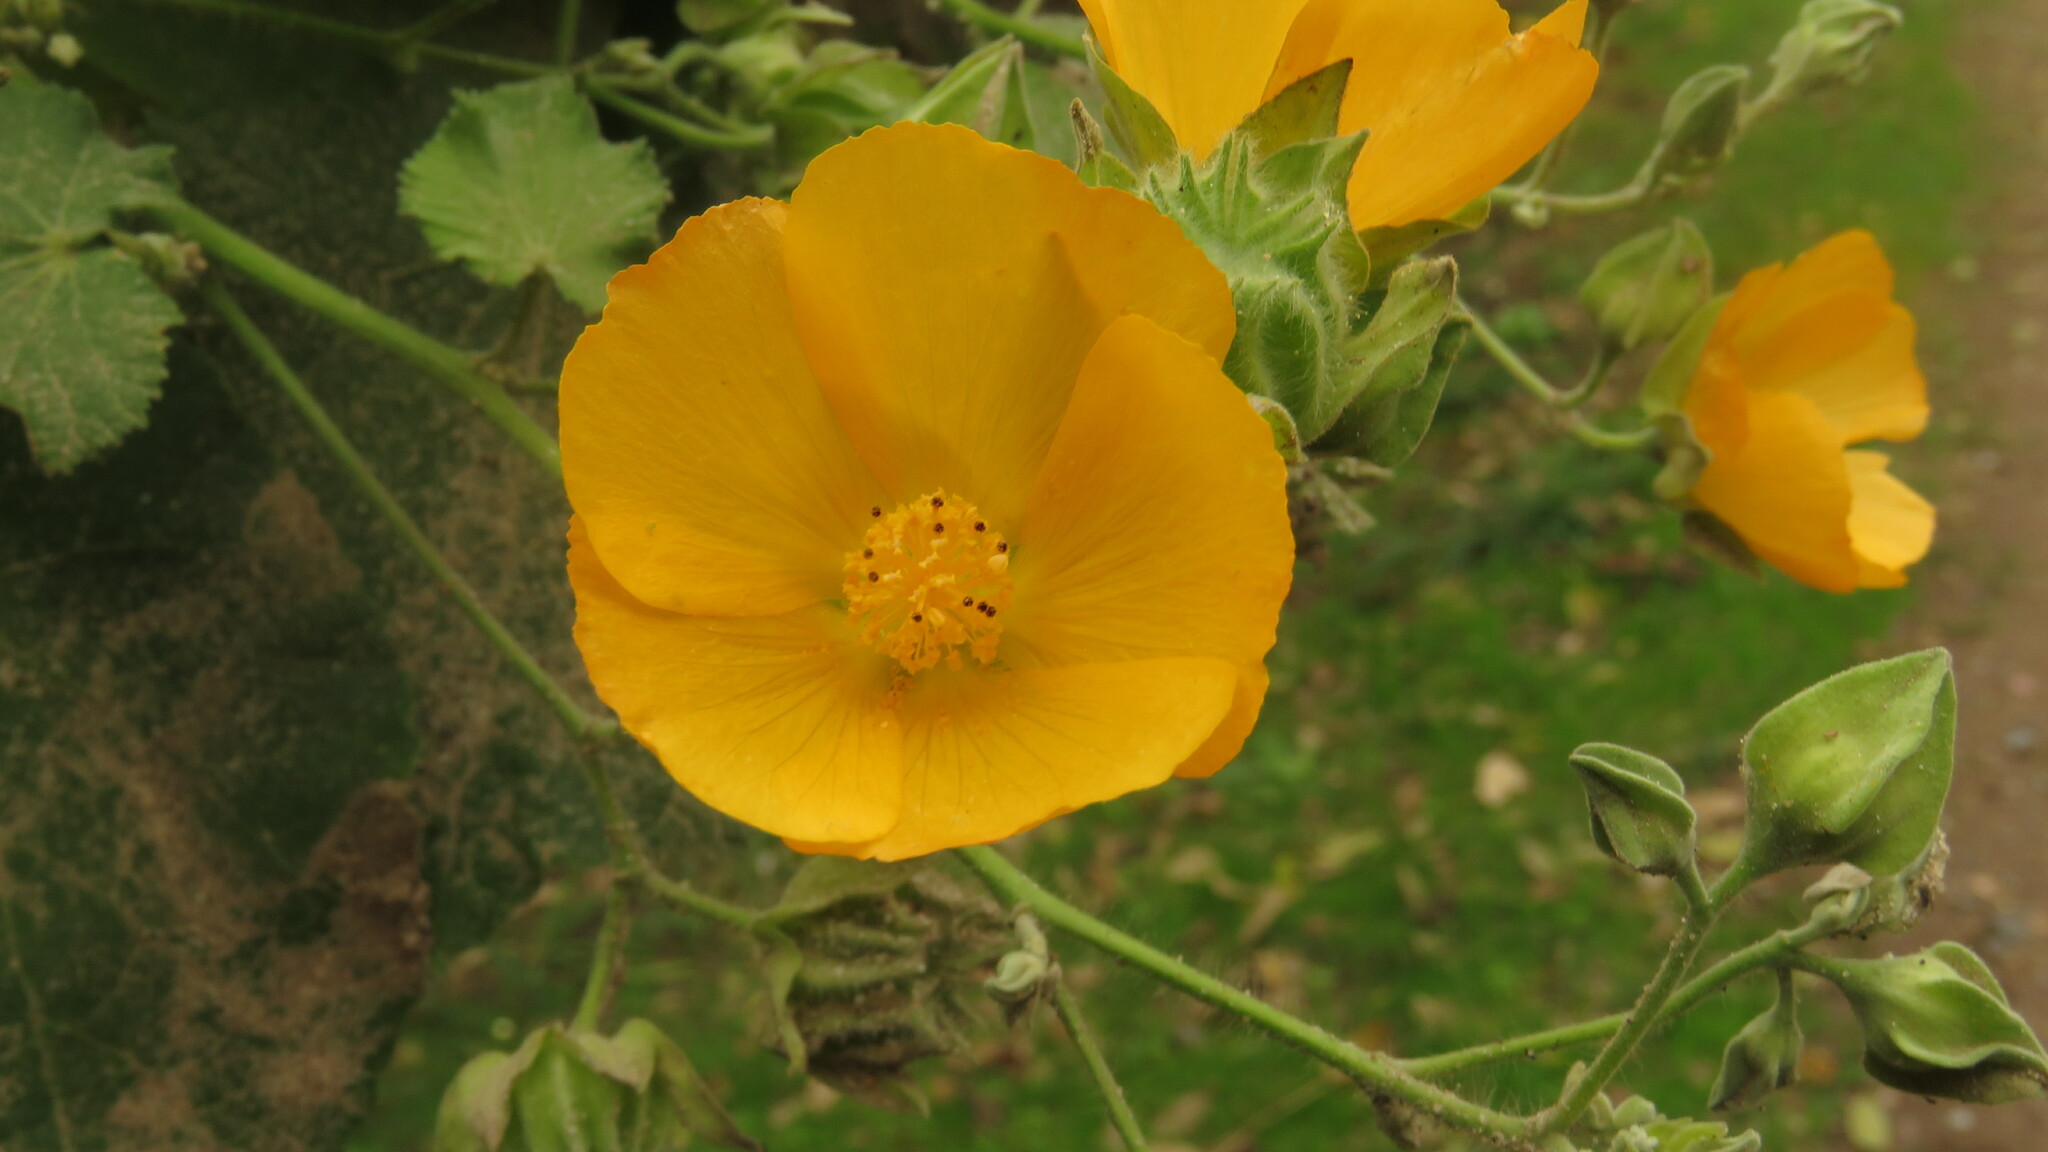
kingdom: Plantae
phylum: Tracheophyta
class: Magnoliopsida
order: Malvales
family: Malvaceae
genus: Abutilon
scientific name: Abutilon grandifolium
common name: Hairy abutilon
